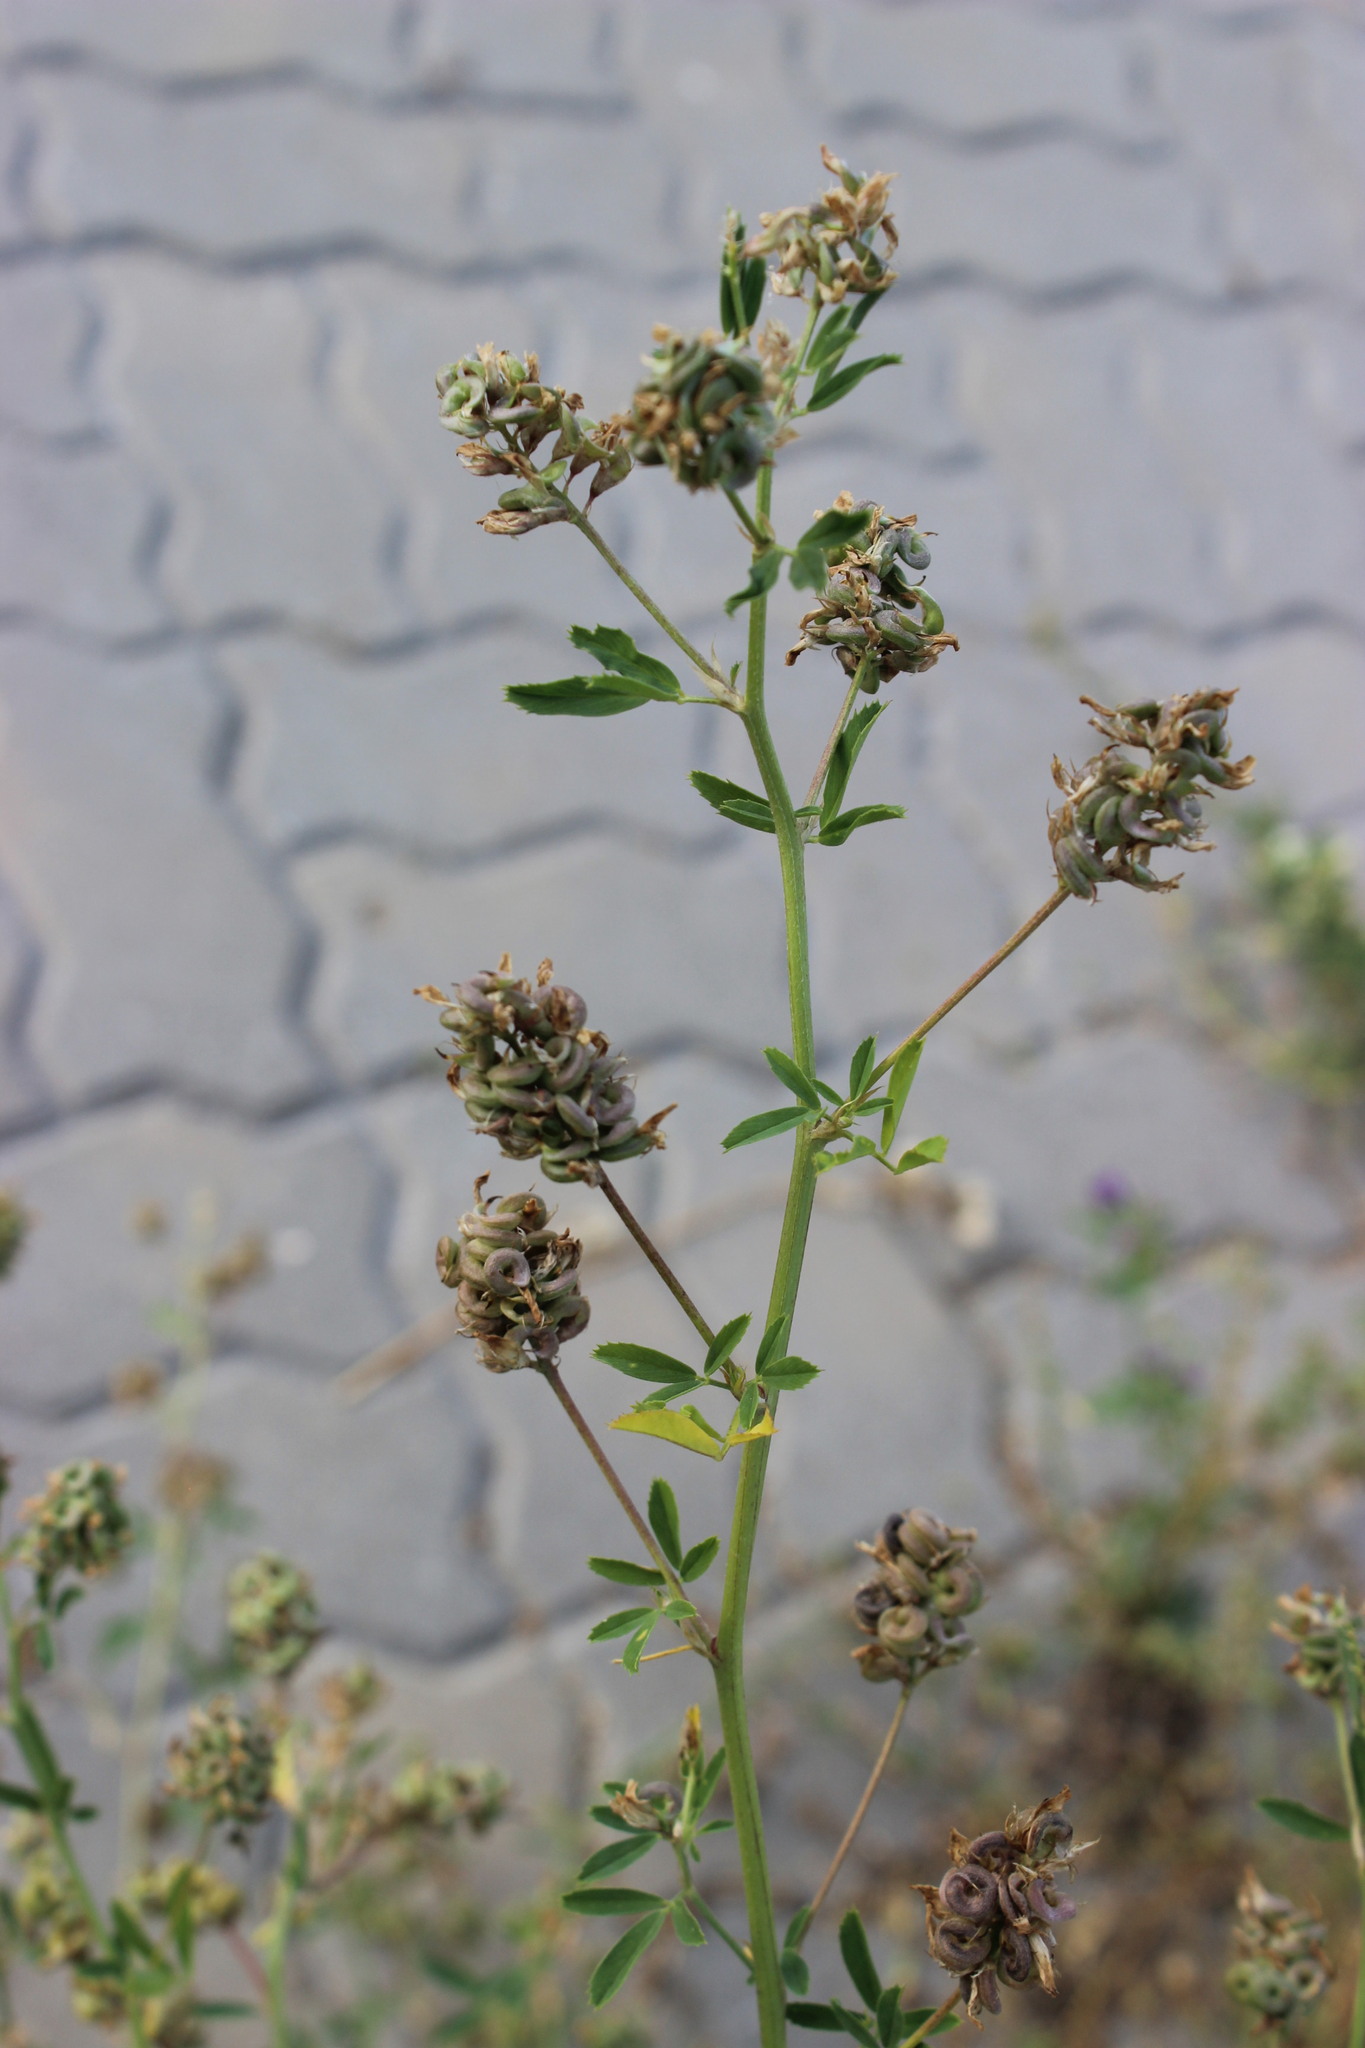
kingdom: Plantae
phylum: Tracheophyta
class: Magnoliopsida
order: Fabales
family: Fabaceae
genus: Medicago
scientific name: Medicago varia
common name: Sand lucerne
